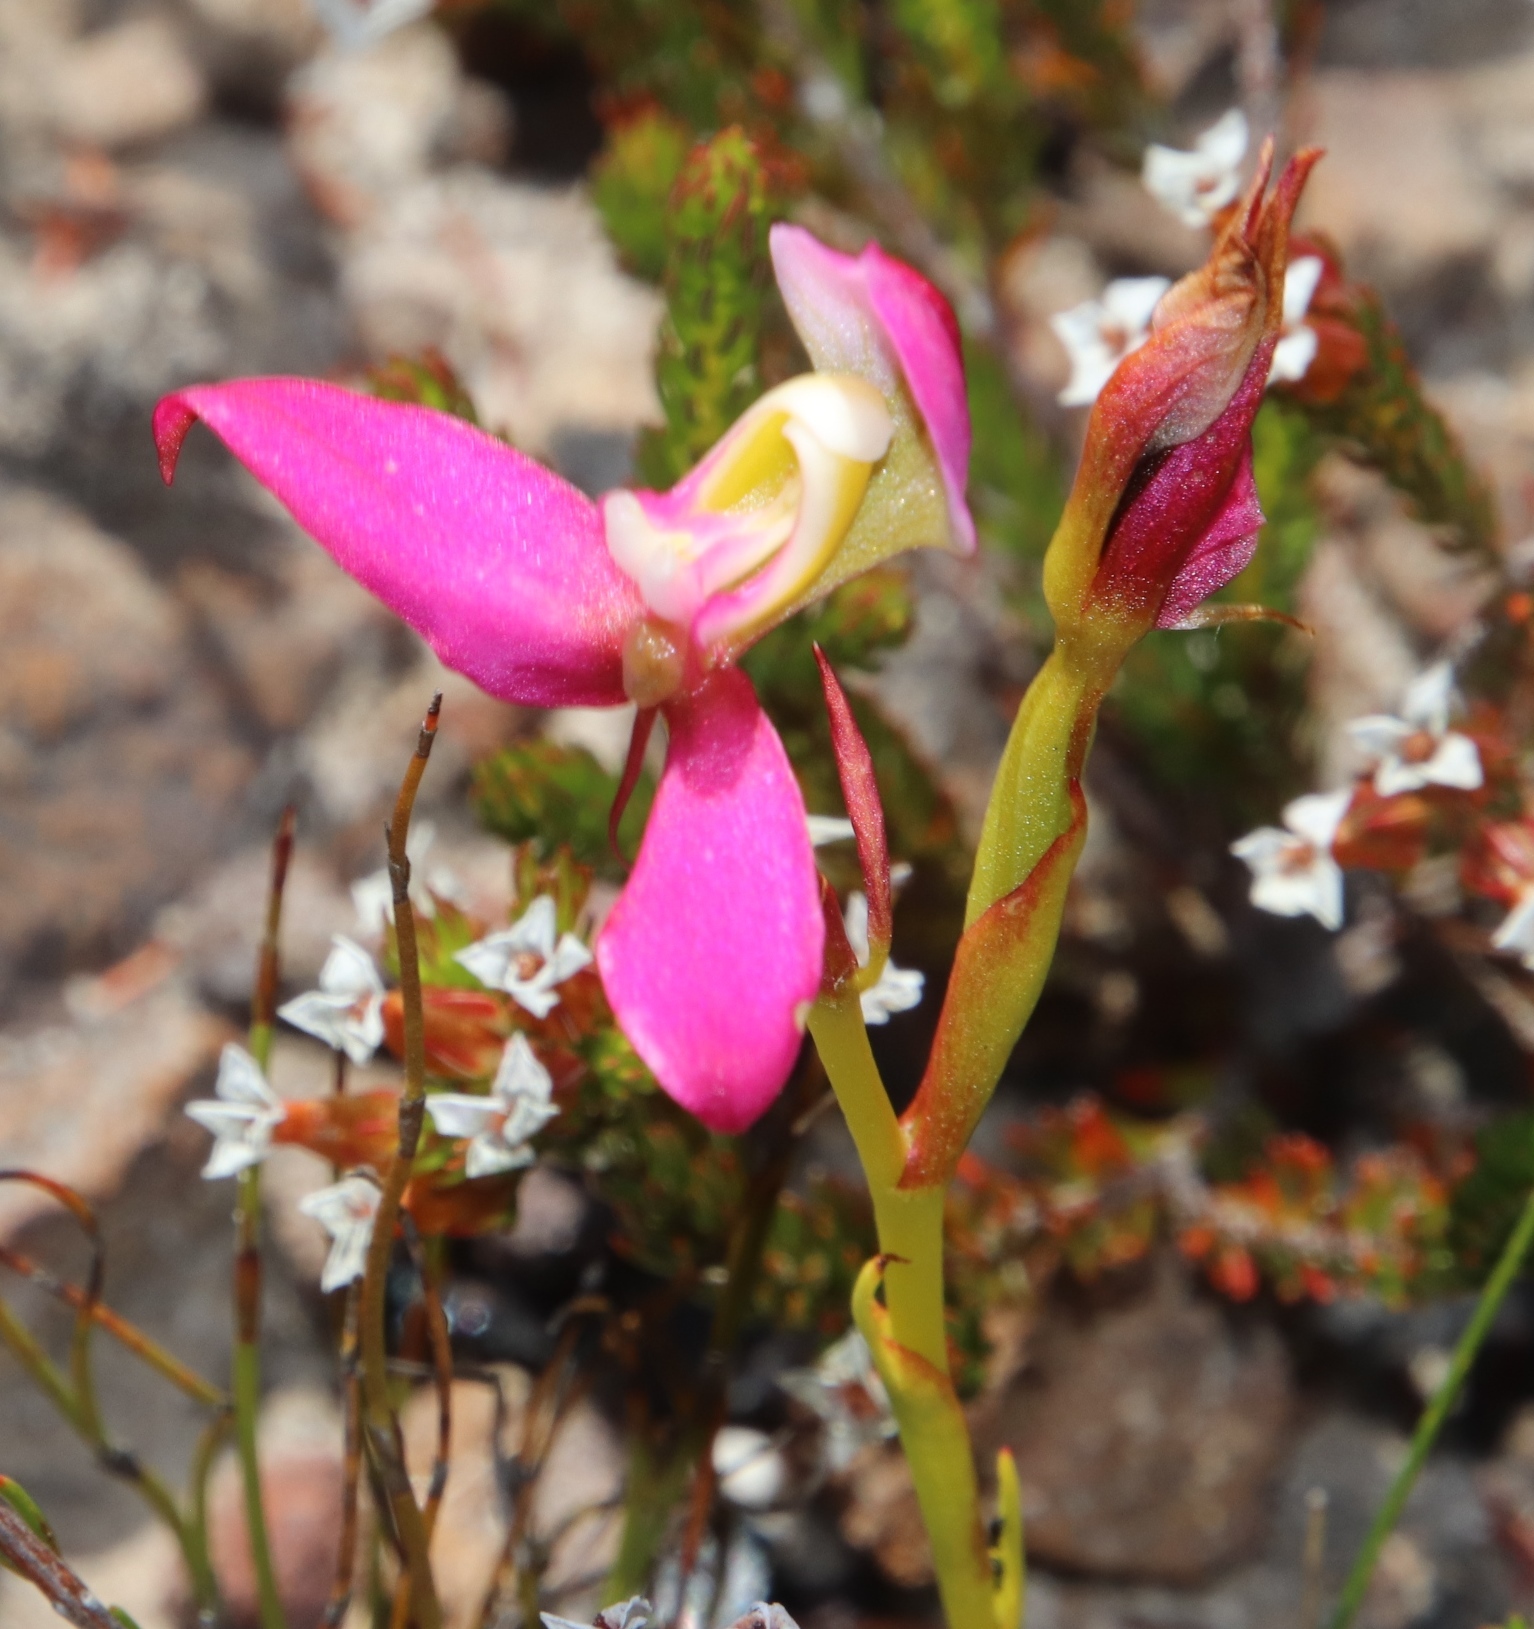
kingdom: Plantae
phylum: Tracheophyta
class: Liliopsida
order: Asparagales
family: Orchidaceae
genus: Disa
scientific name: Disa filicornis
